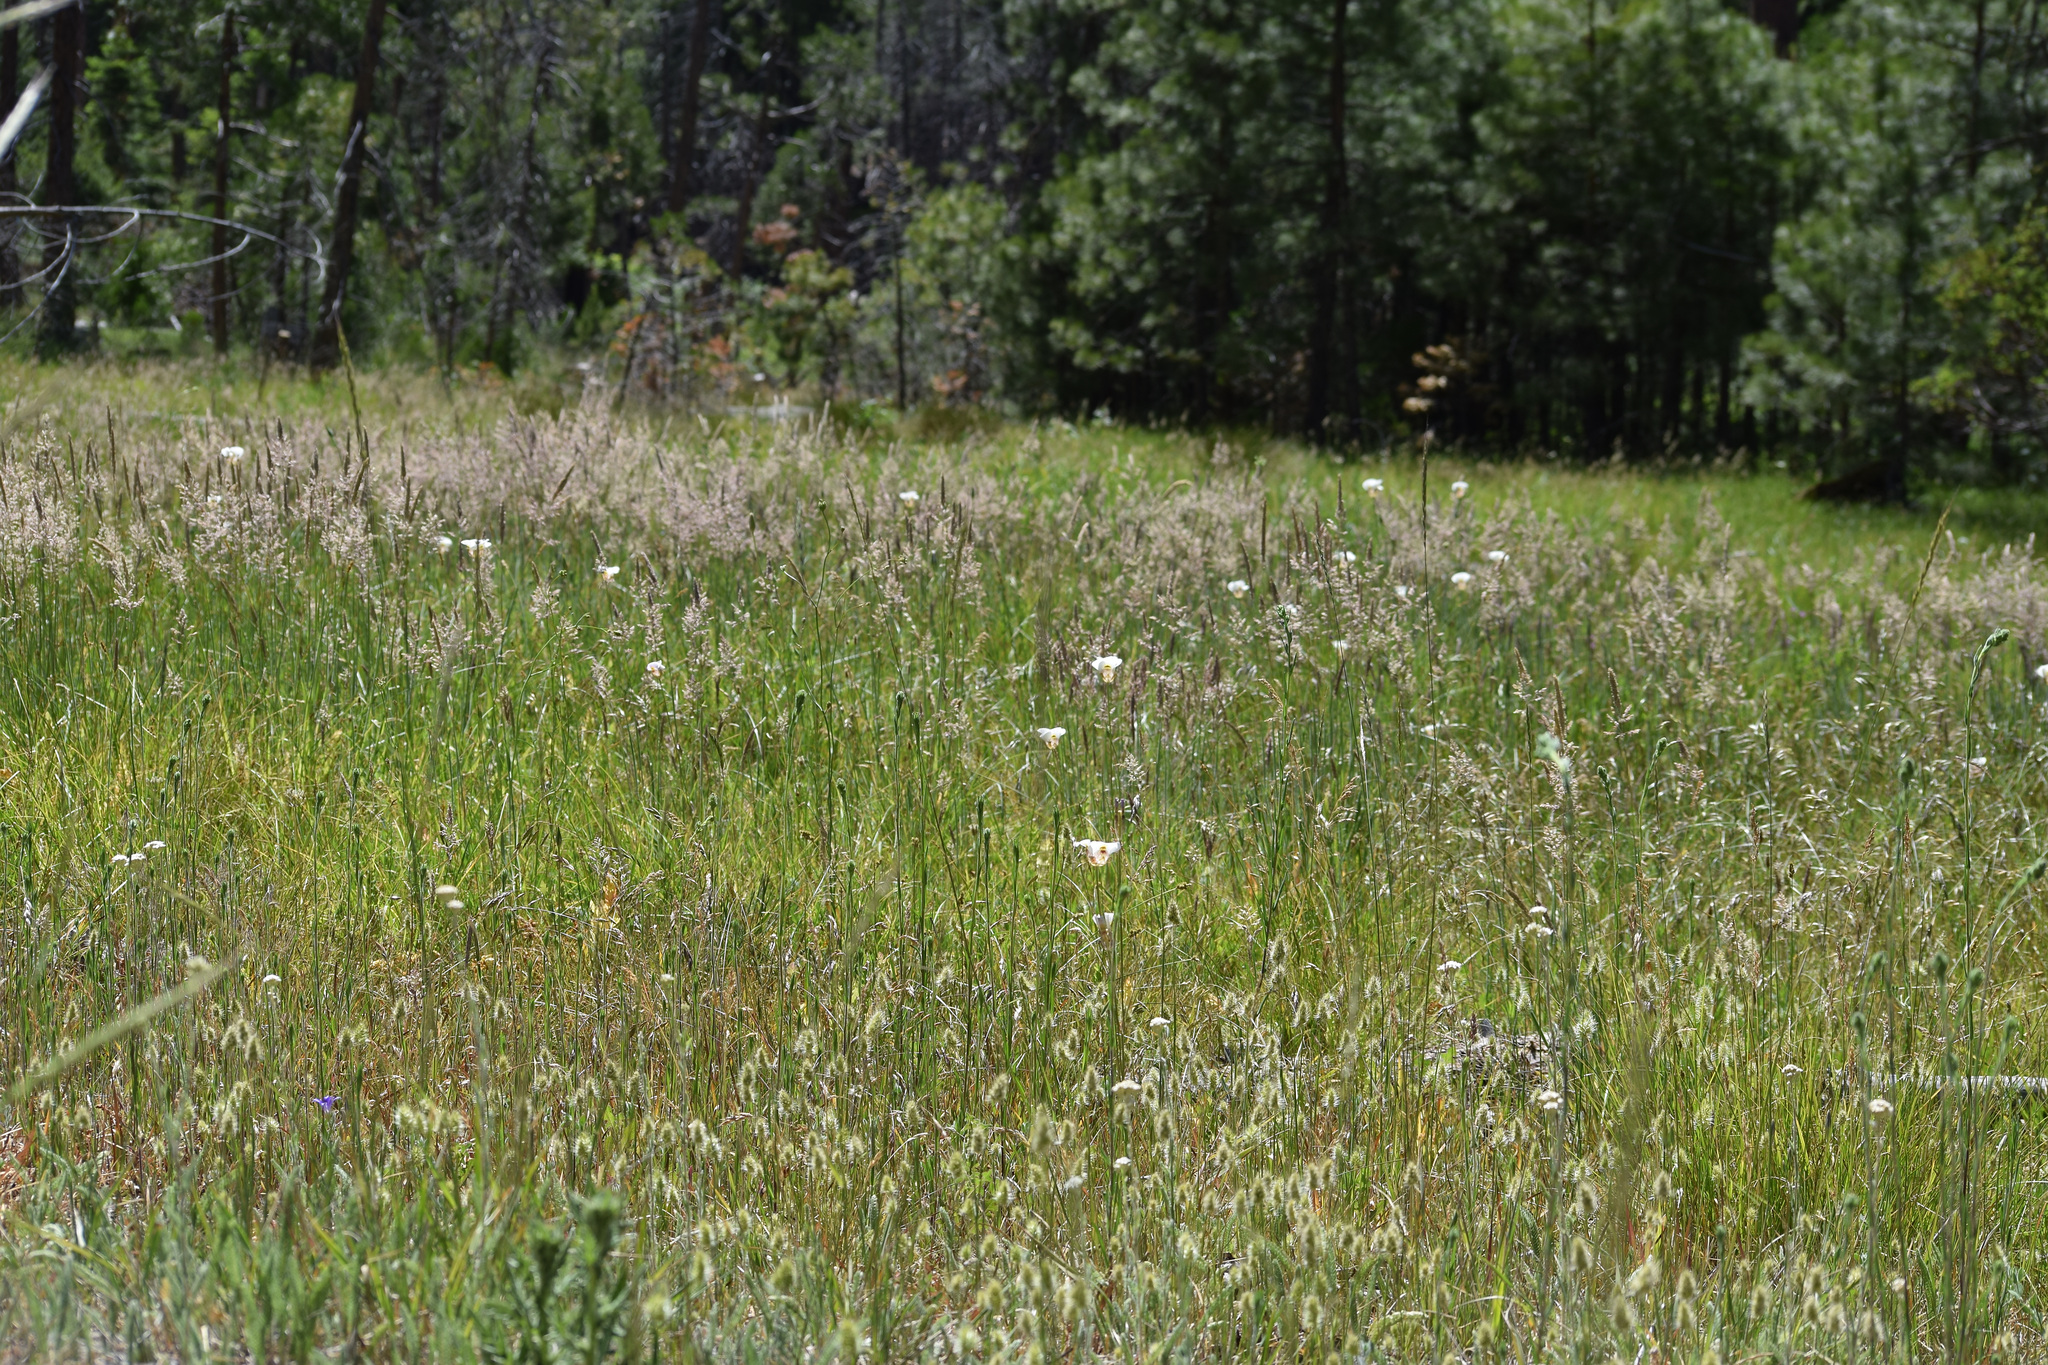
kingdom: Plantae
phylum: Tracheophyta
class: Liliopsida
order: Liliales
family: Liliaceae
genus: Calochortus
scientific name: Calochortus superbus
